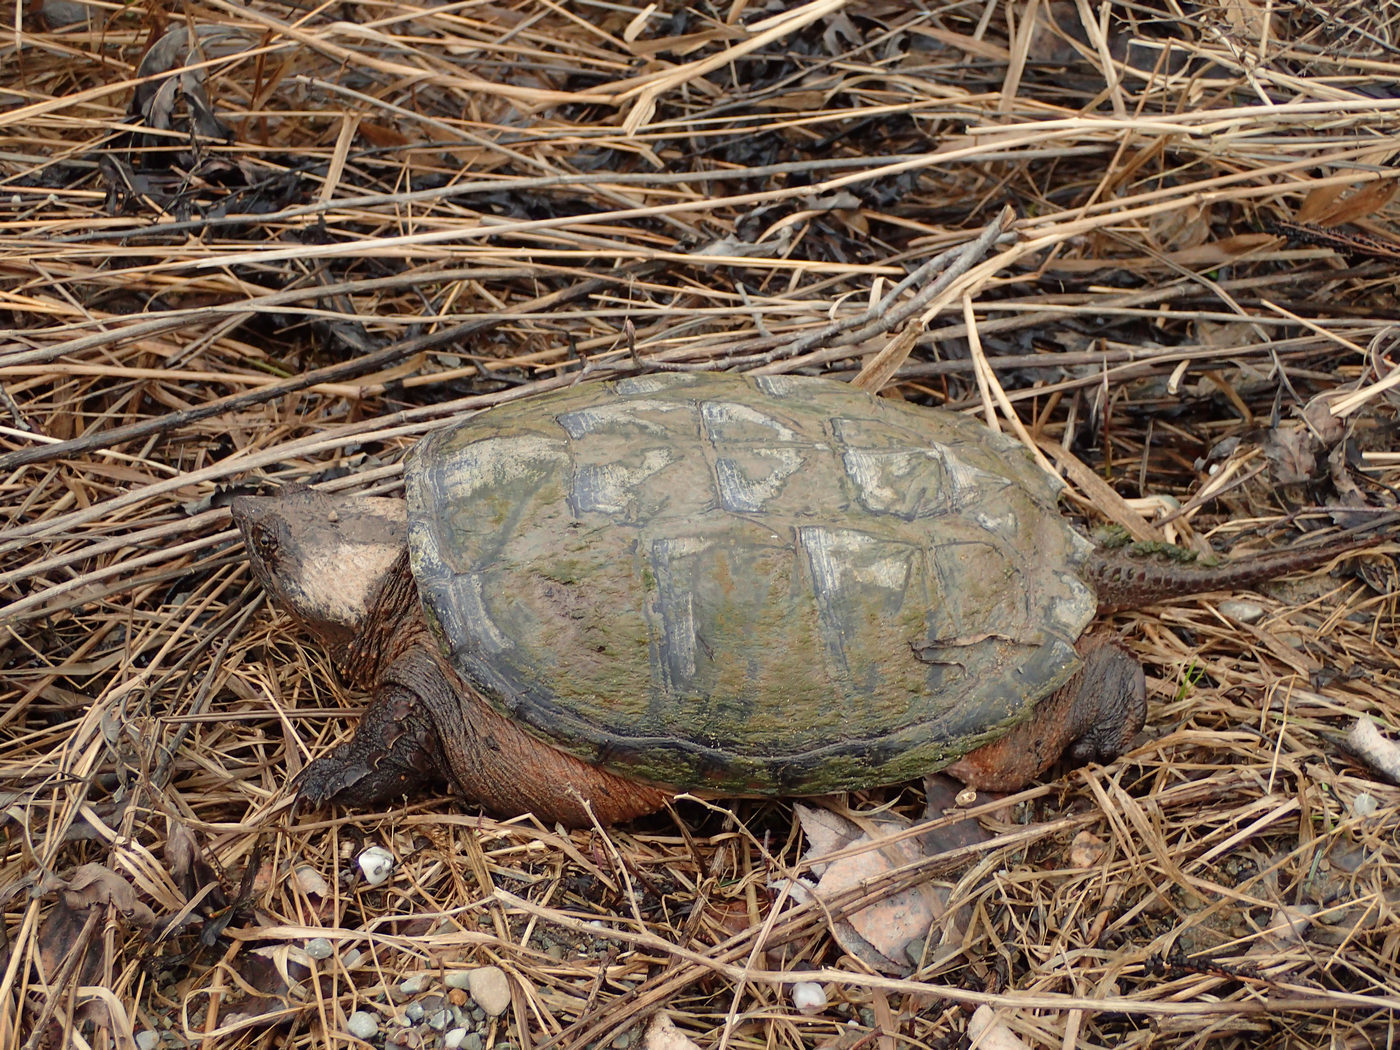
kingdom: Animalia
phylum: Chordata
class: Testudines
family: Chelydridae
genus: Chelydra
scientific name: Chelydra serpentina
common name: Common snapping turtle
